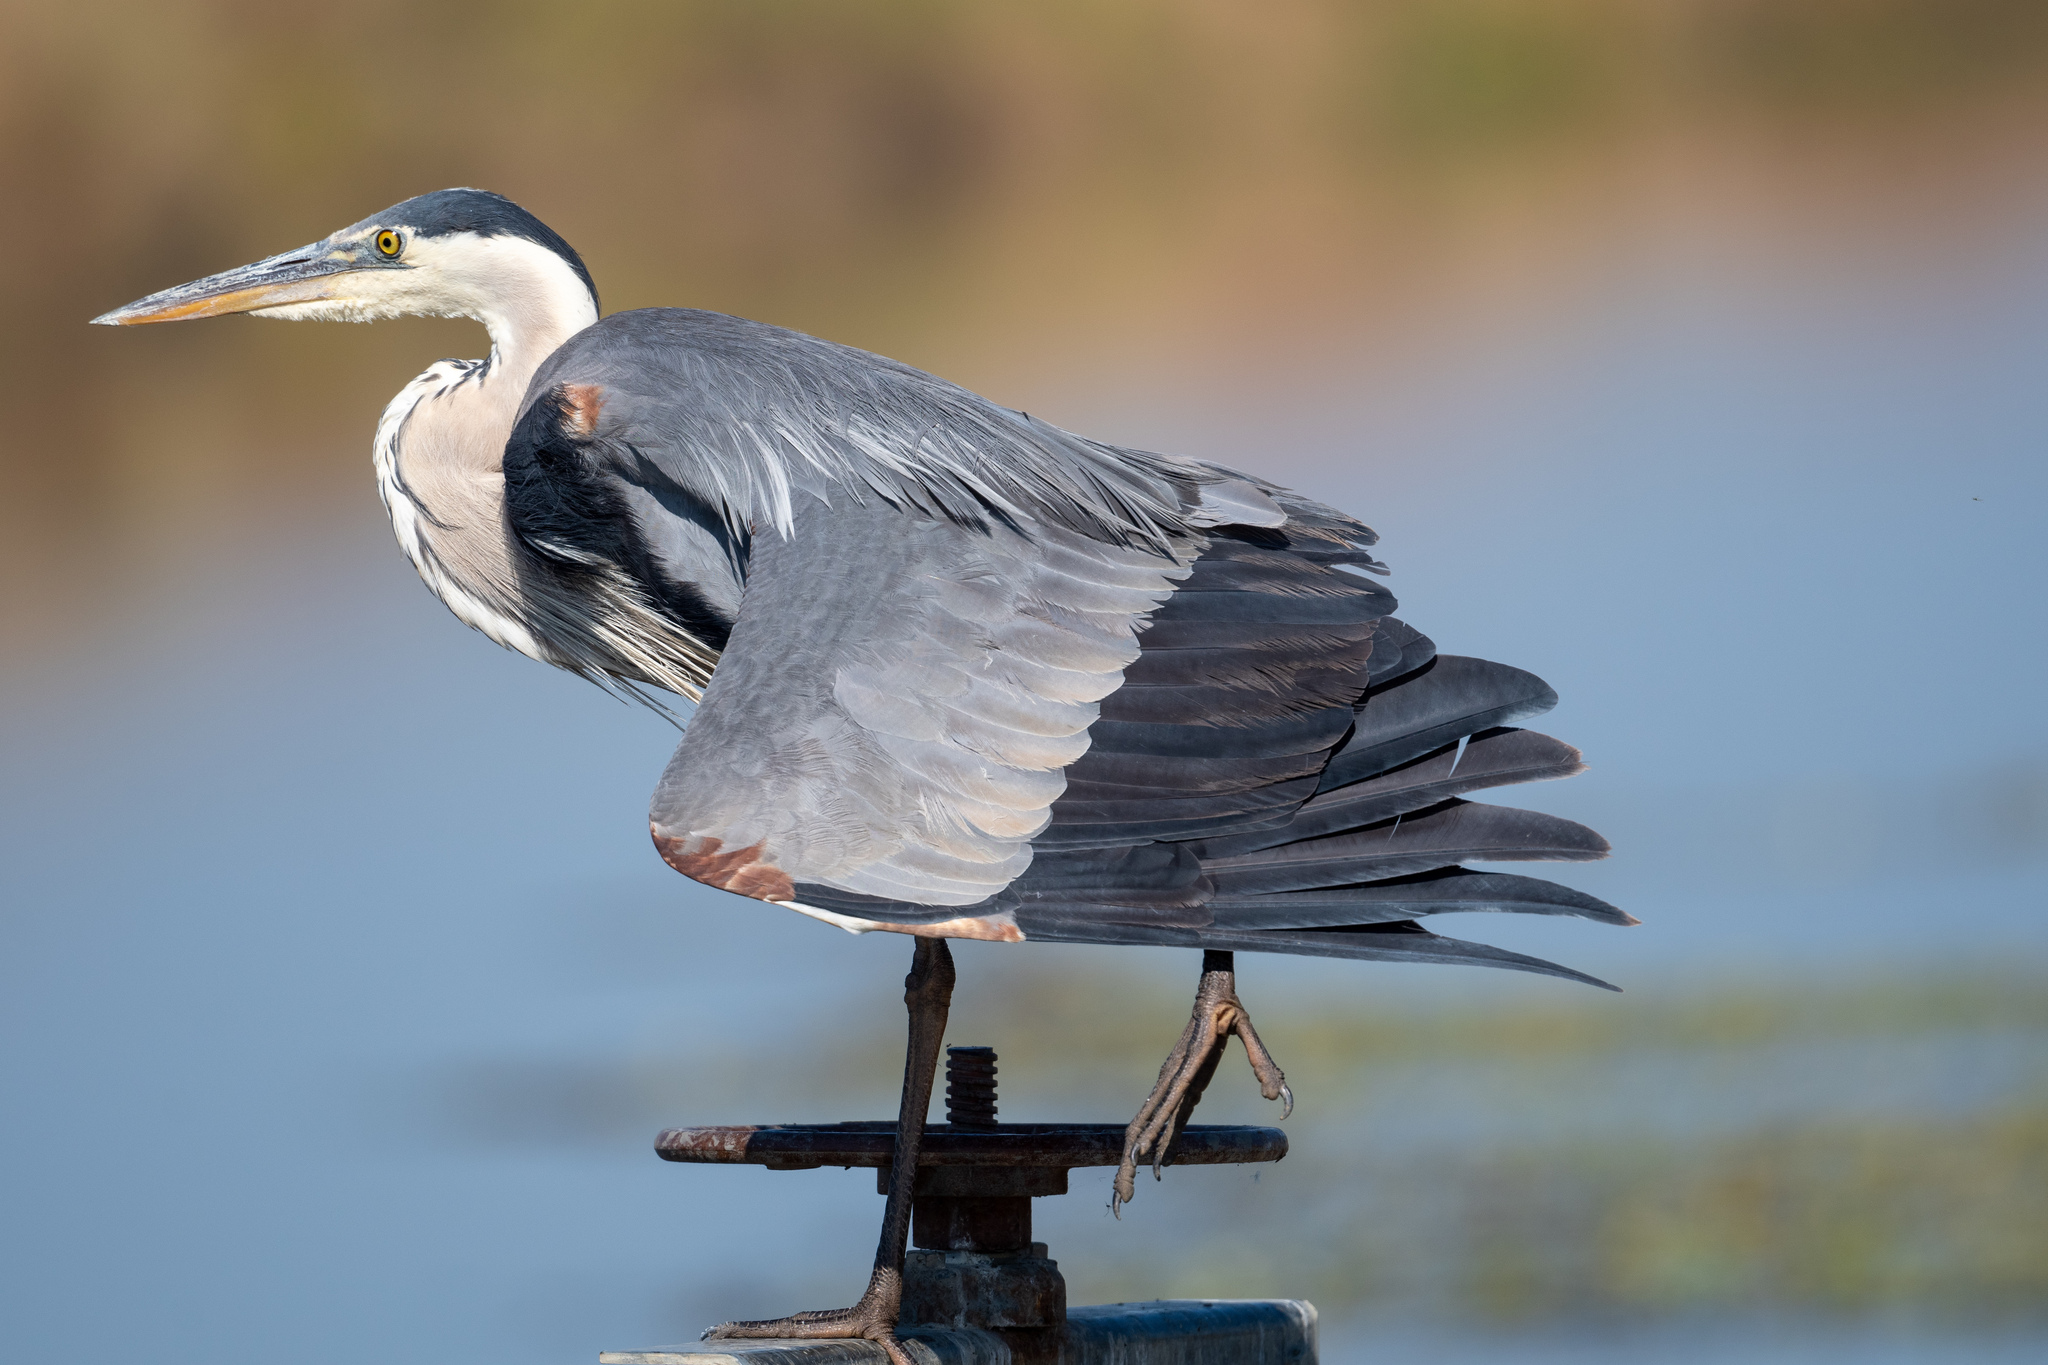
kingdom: Animalia
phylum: Chordata
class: Aves
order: Pelecaniformes
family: Ardeidae
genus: Ardea
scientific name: Ardea herodias
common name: Great blue heron
